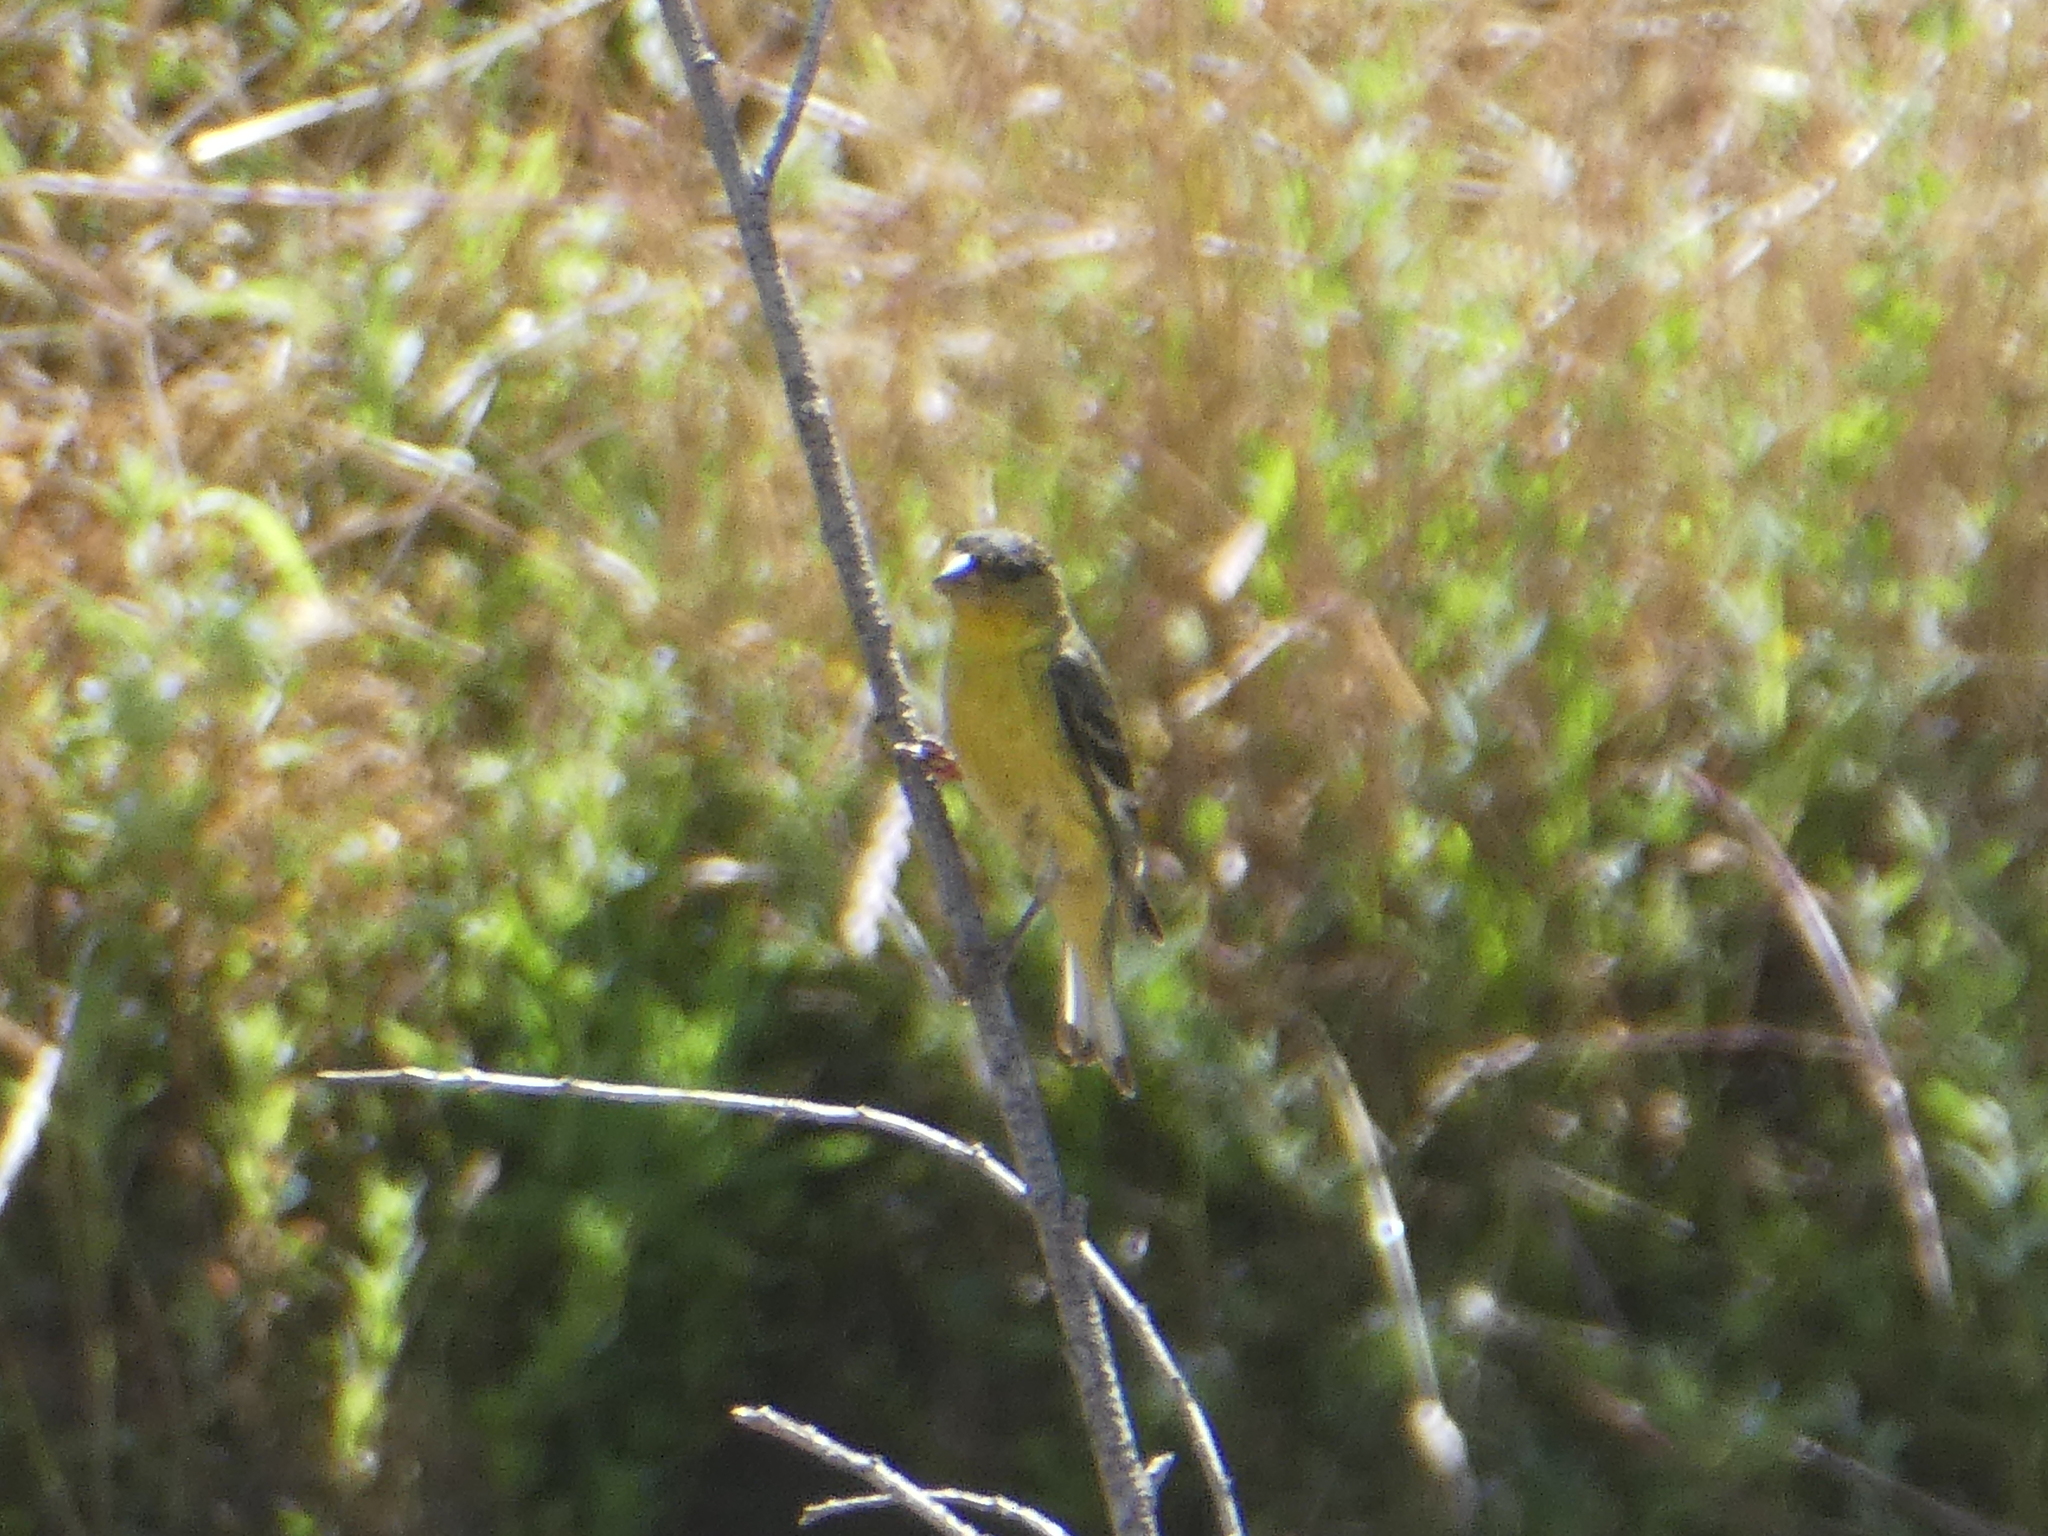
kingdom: Animalia
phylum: Chordata
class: Aves
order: Passeriformes
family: Fringillidae
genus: Spinus
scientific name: Spinus psaltria
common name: Lesser goldfinch
